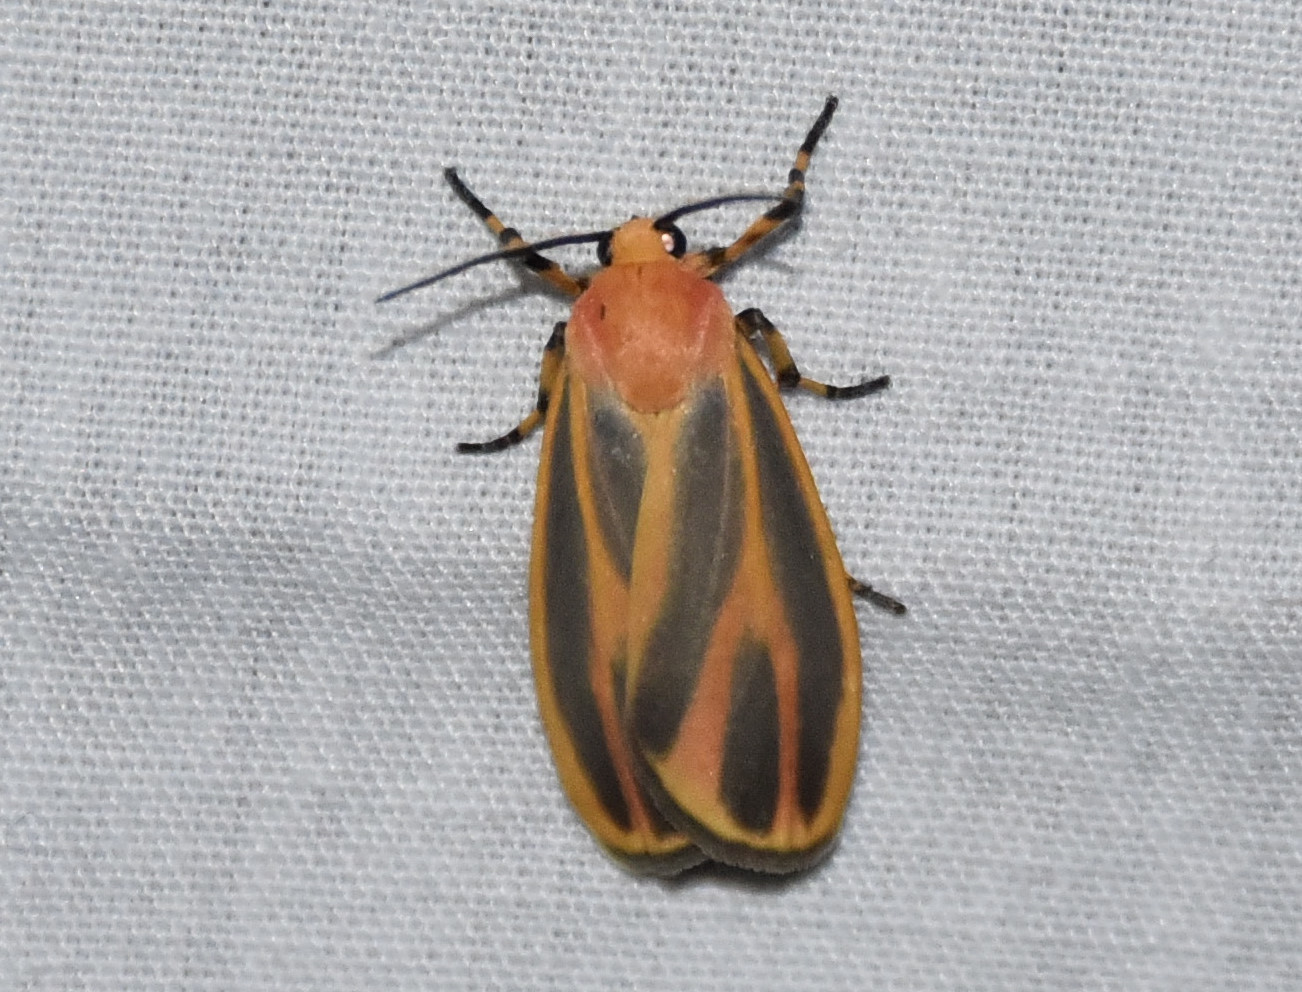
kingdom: Animalia
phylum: Arthropoda
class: Insecta
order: Lepidoptera
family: Erebidae
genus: Hypoprepia
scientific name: Hypoprepia fucosa
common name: Painted lichen moth
